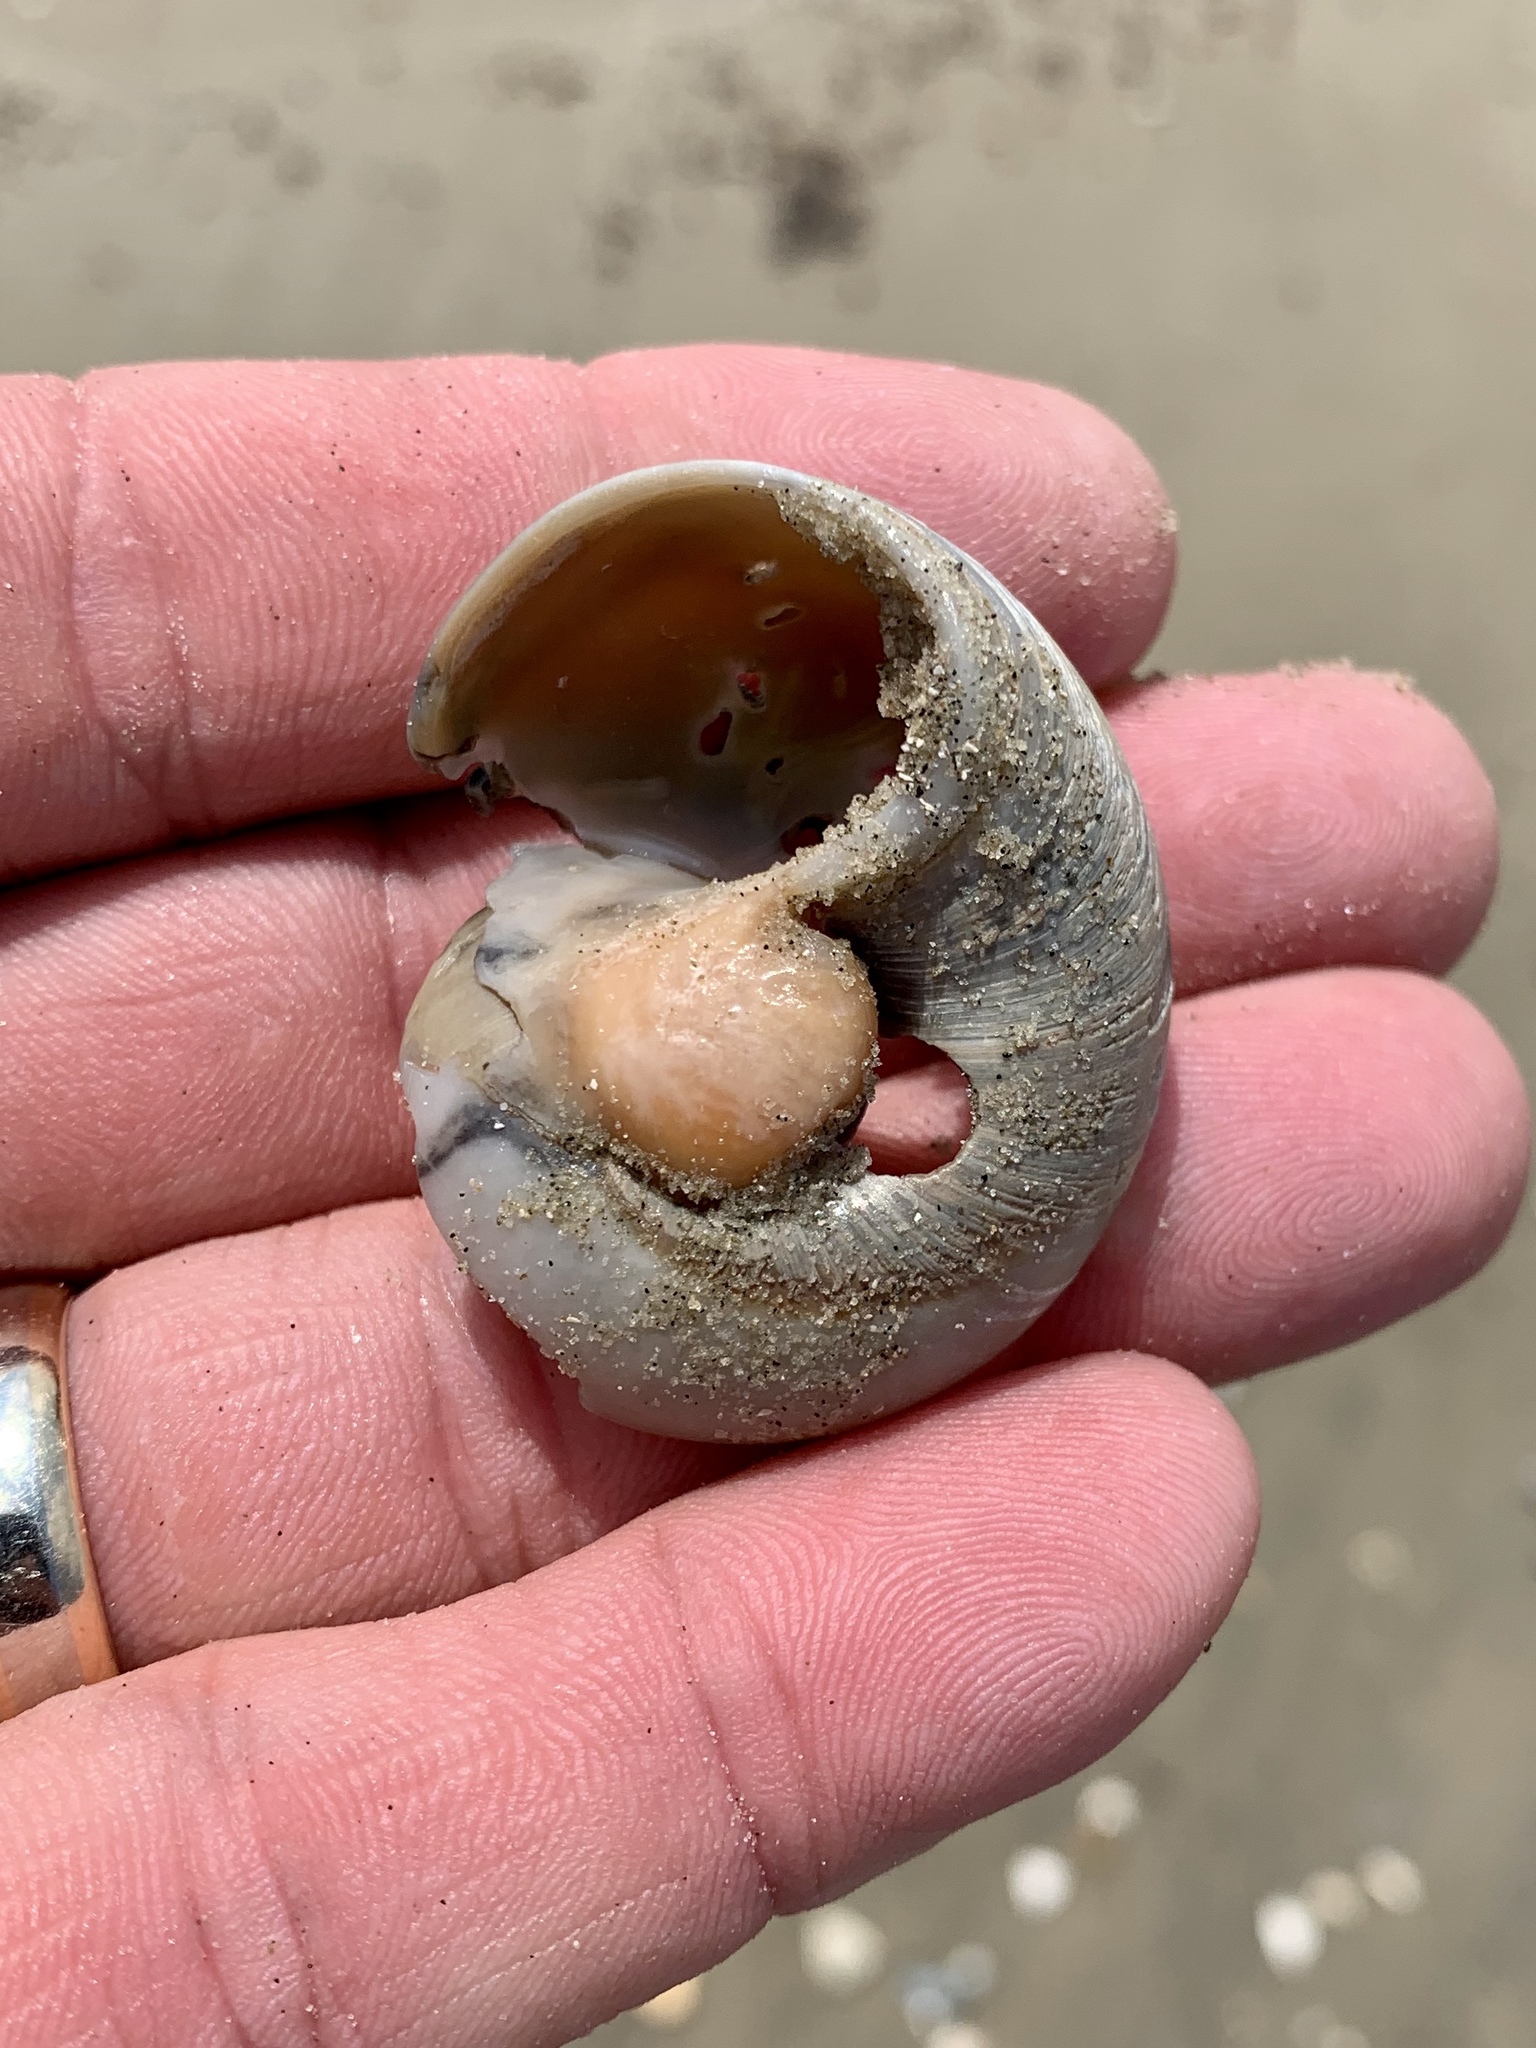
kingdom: Animalia
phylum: Mollusca
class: Gastropoda
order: Littorinimorpha
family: Naticidae
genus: Neverita
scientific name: Neverita duplicata
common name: Lobed moonsnail
